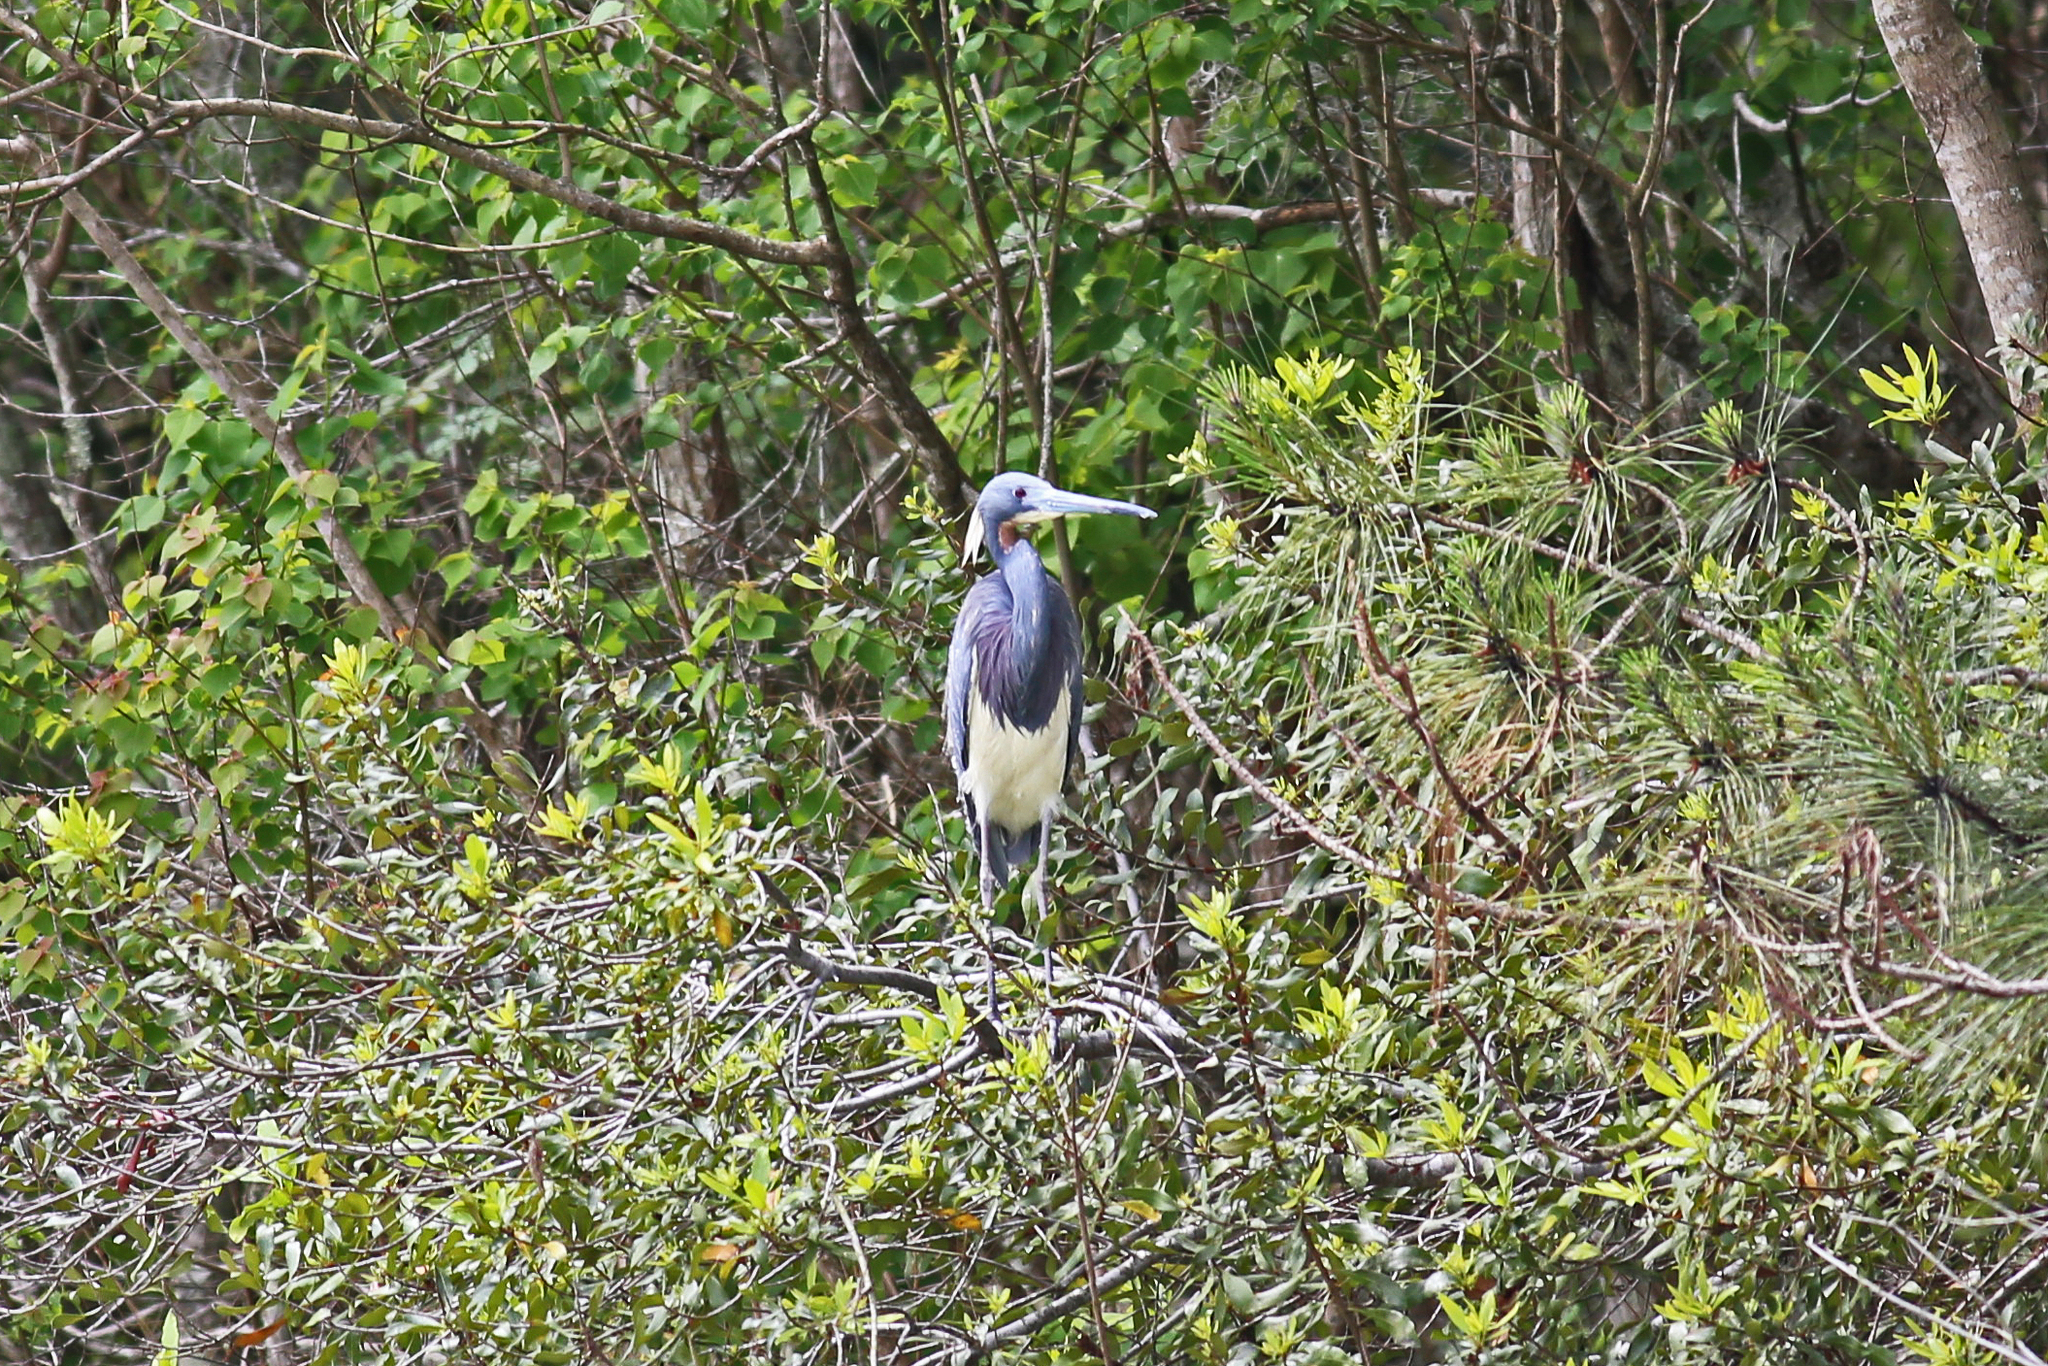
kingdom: Animalia
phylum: Chordata
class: Aves
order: Pelecaniformes
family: Ardeidae
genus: Egretta
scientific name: Egretta tricolor
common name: Tricolored heron
